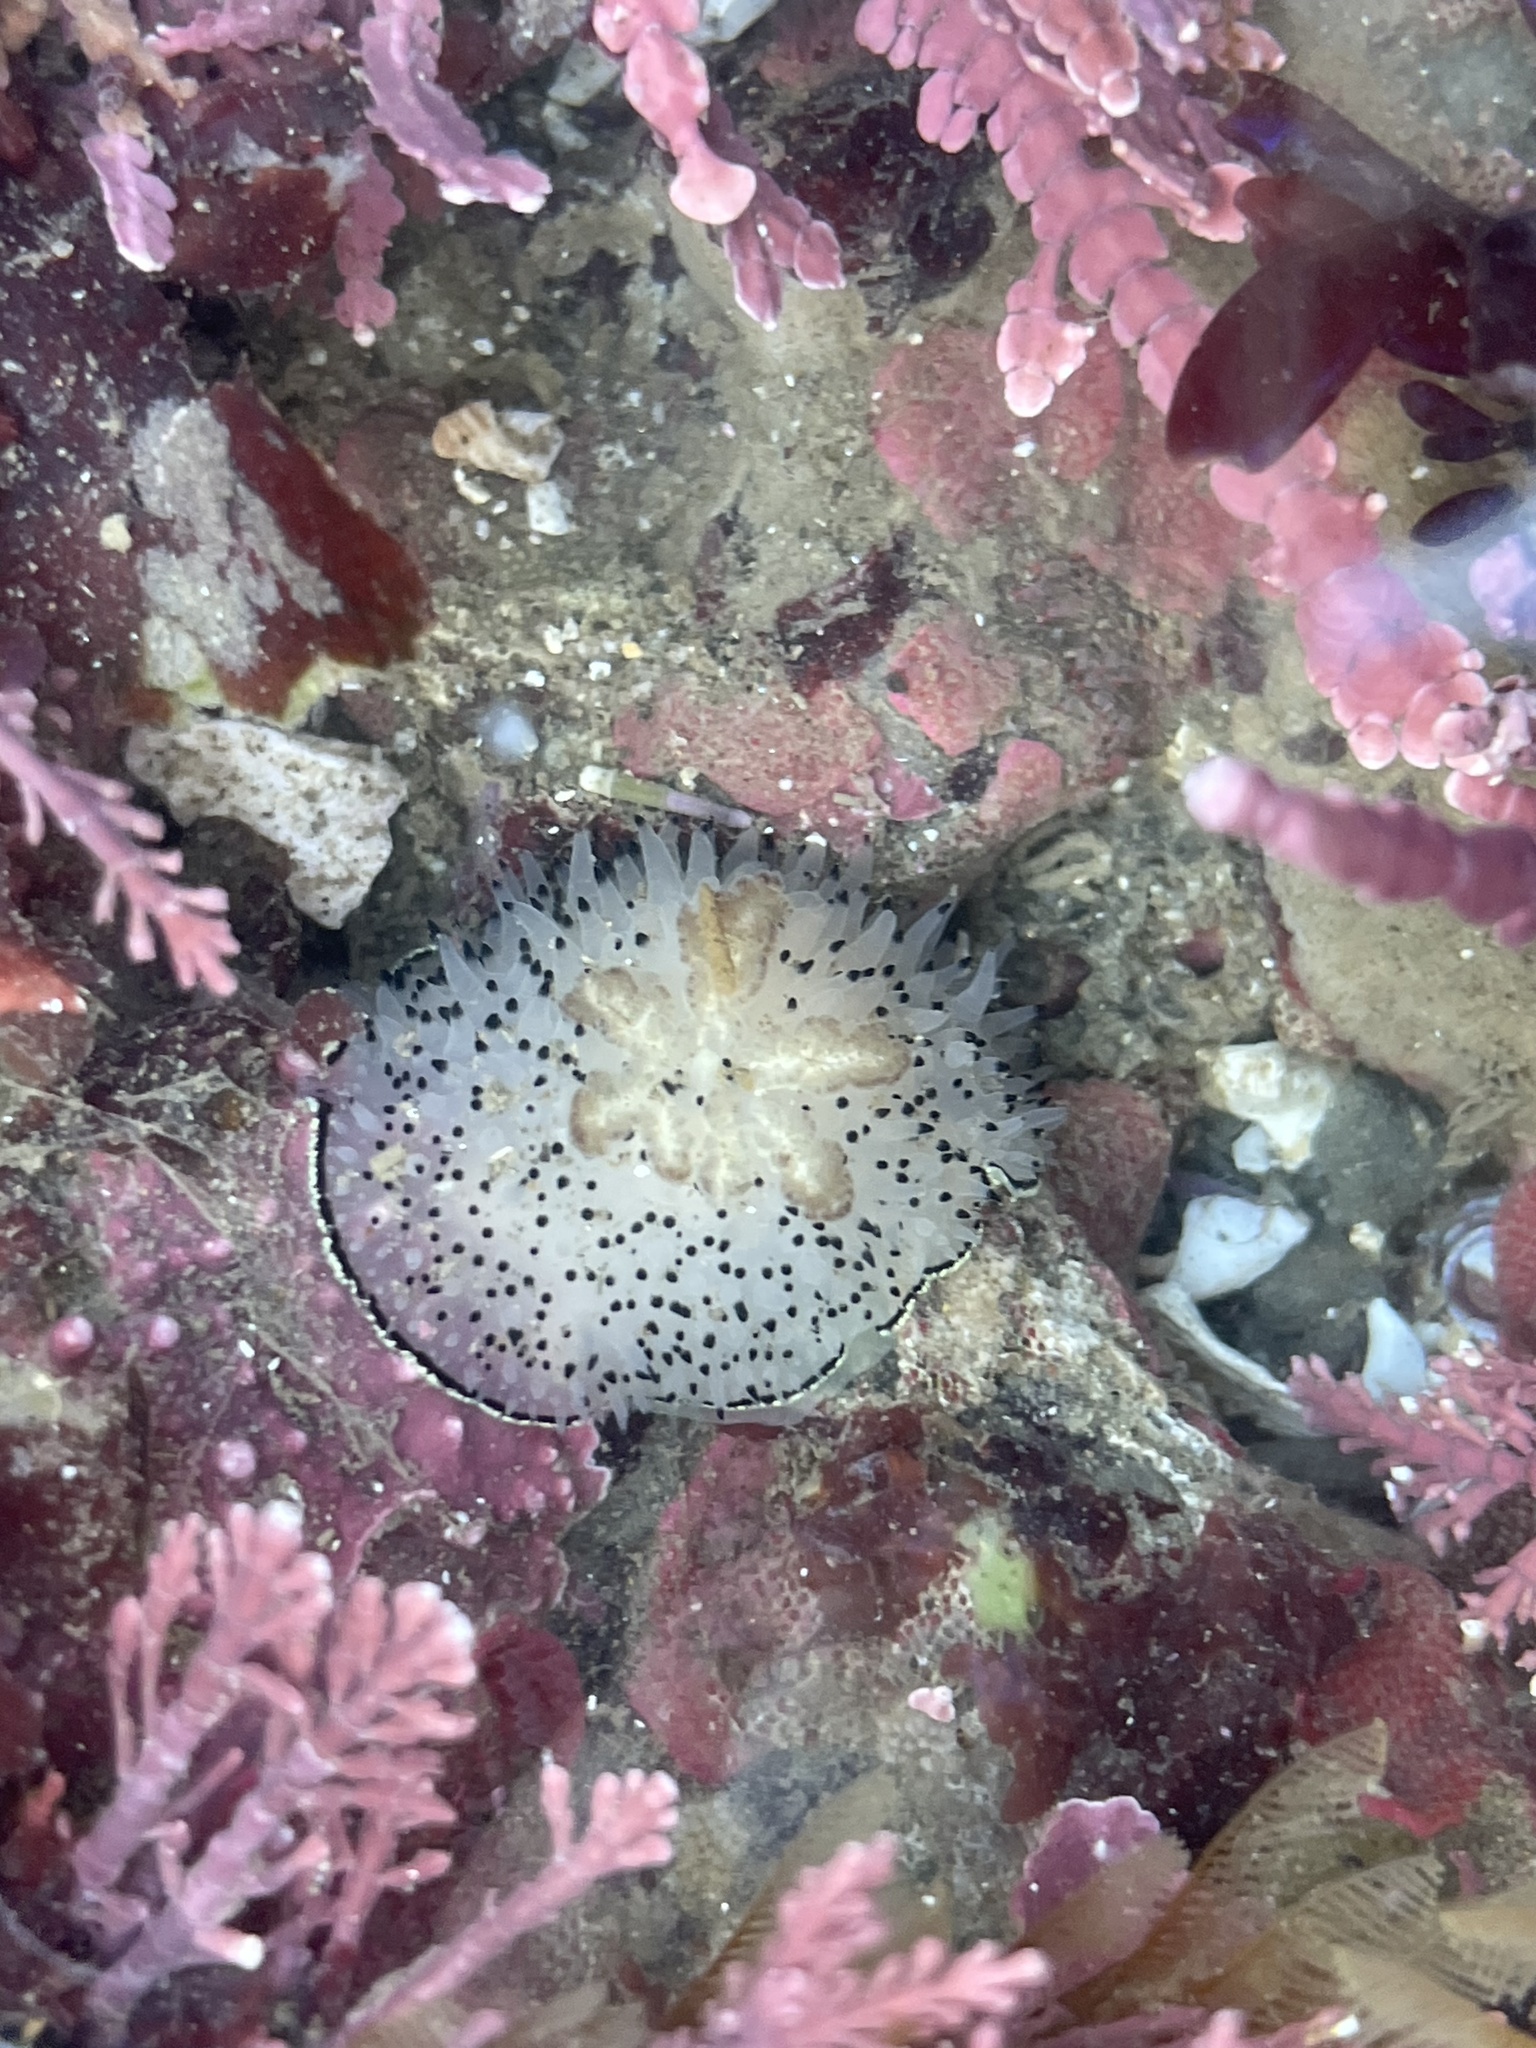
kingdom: Animalia
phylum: Mollusca
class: Gastropoda
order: Nudibranchia
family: Onchidorididae
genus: Acanthodoris
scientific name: Acanthodoris rhodoceras
